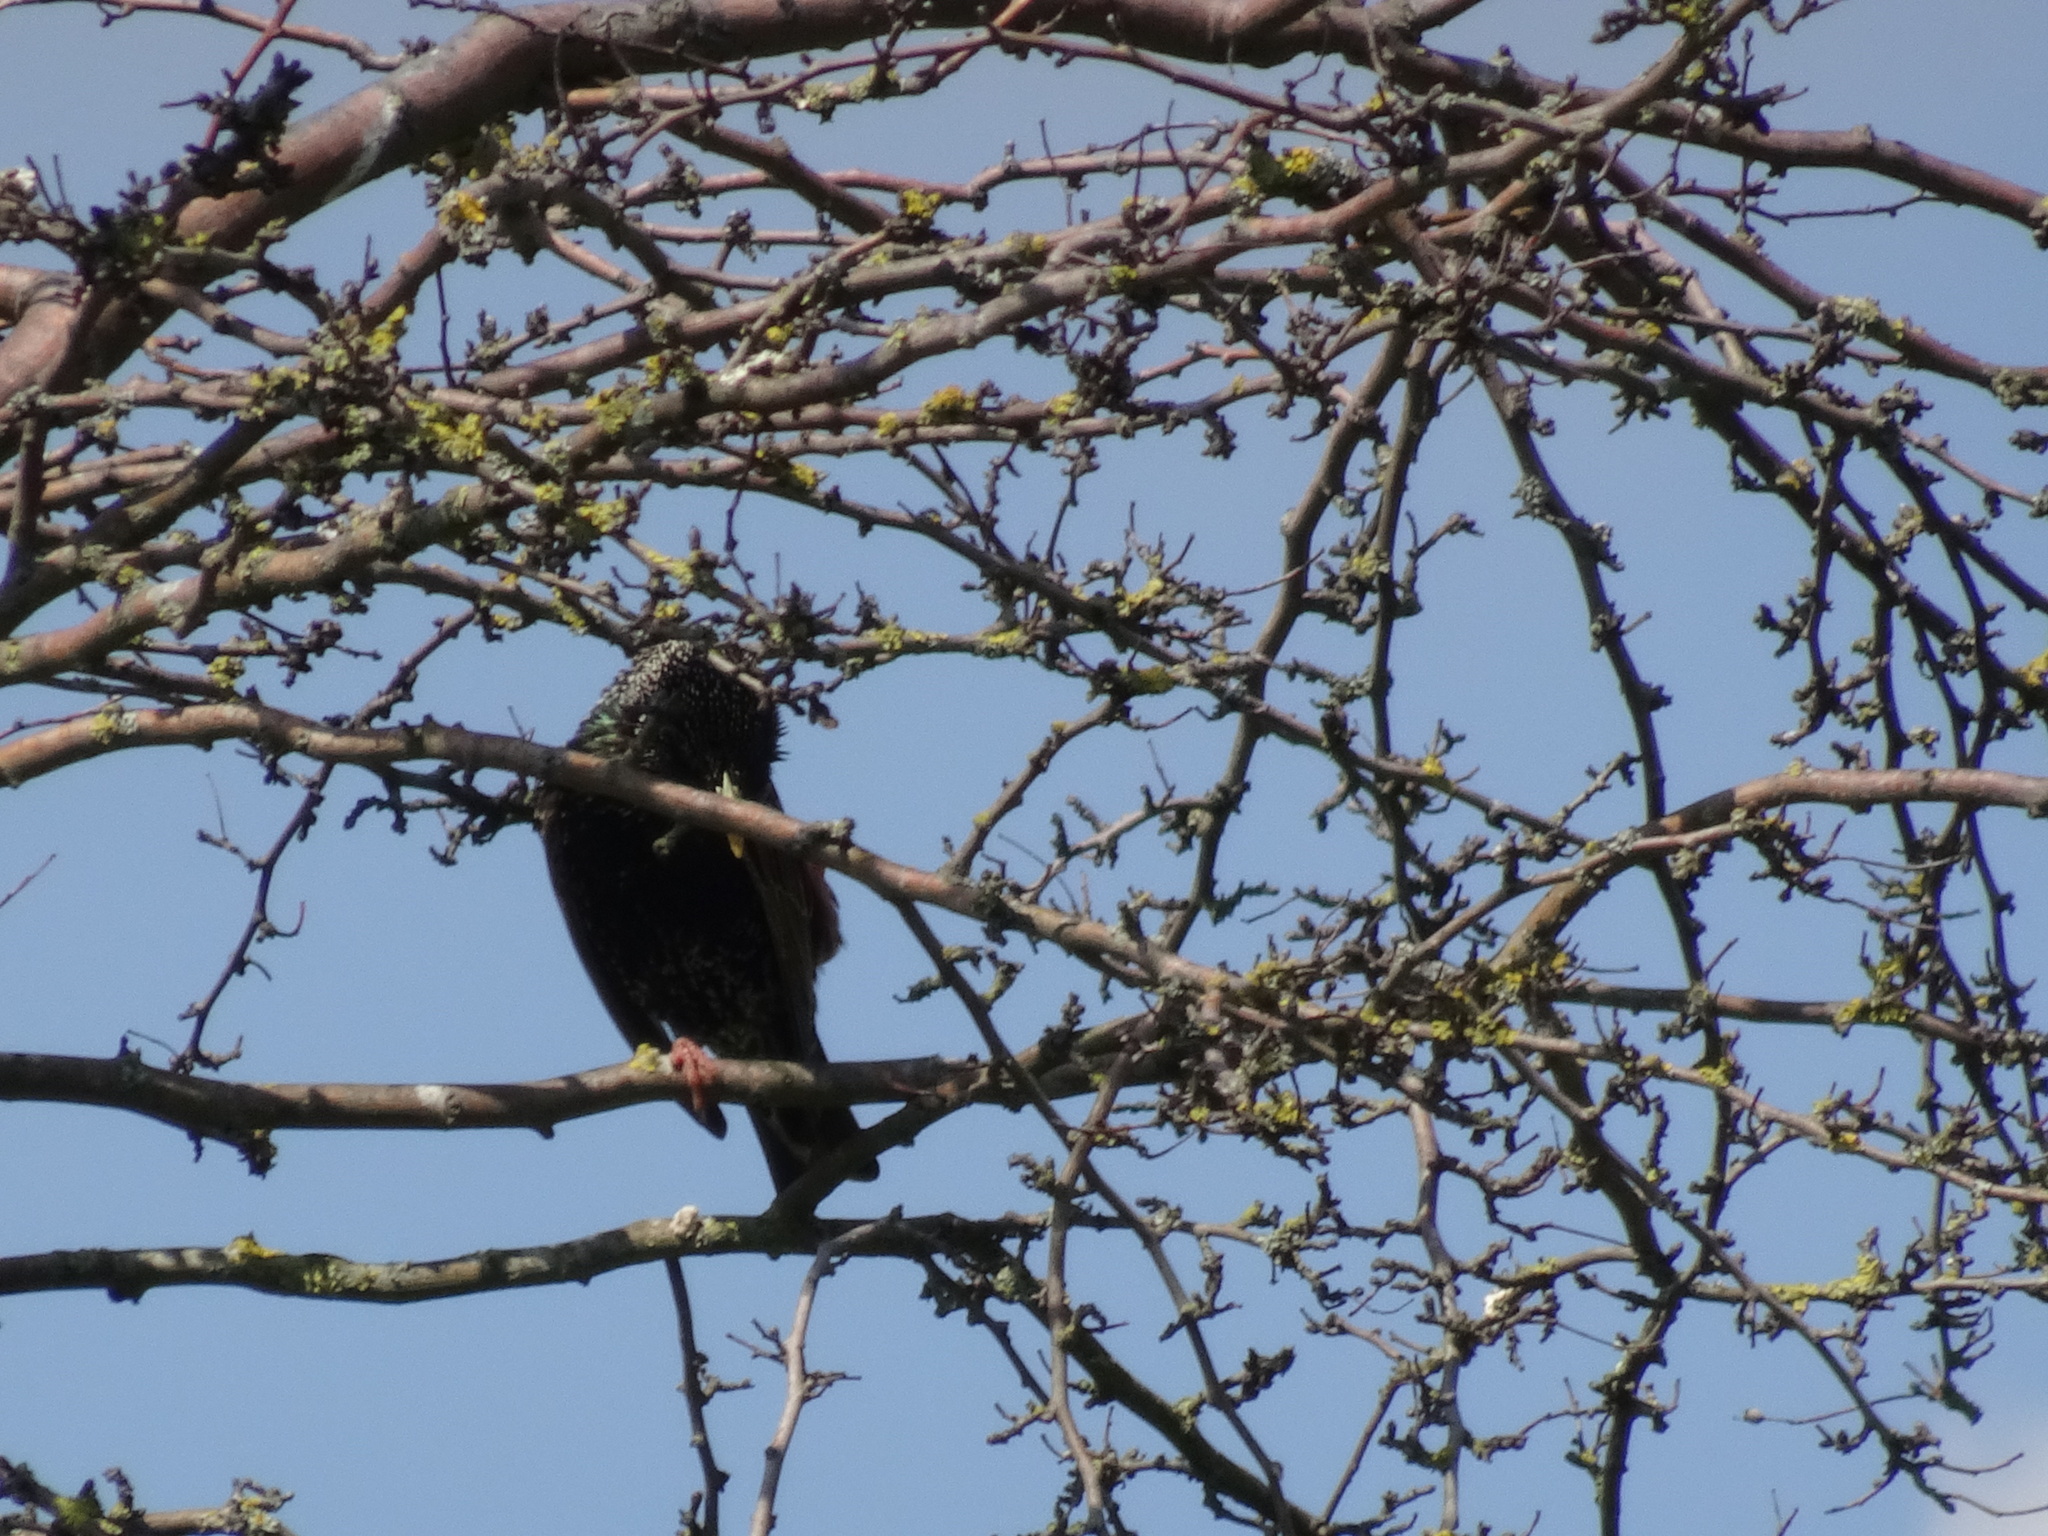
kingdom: Animalia
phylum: Chordata
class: Aves
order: Passeriformes
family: Sturnidae
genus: Sturnus
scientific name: Sturnus vulgaris
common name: Common starling
